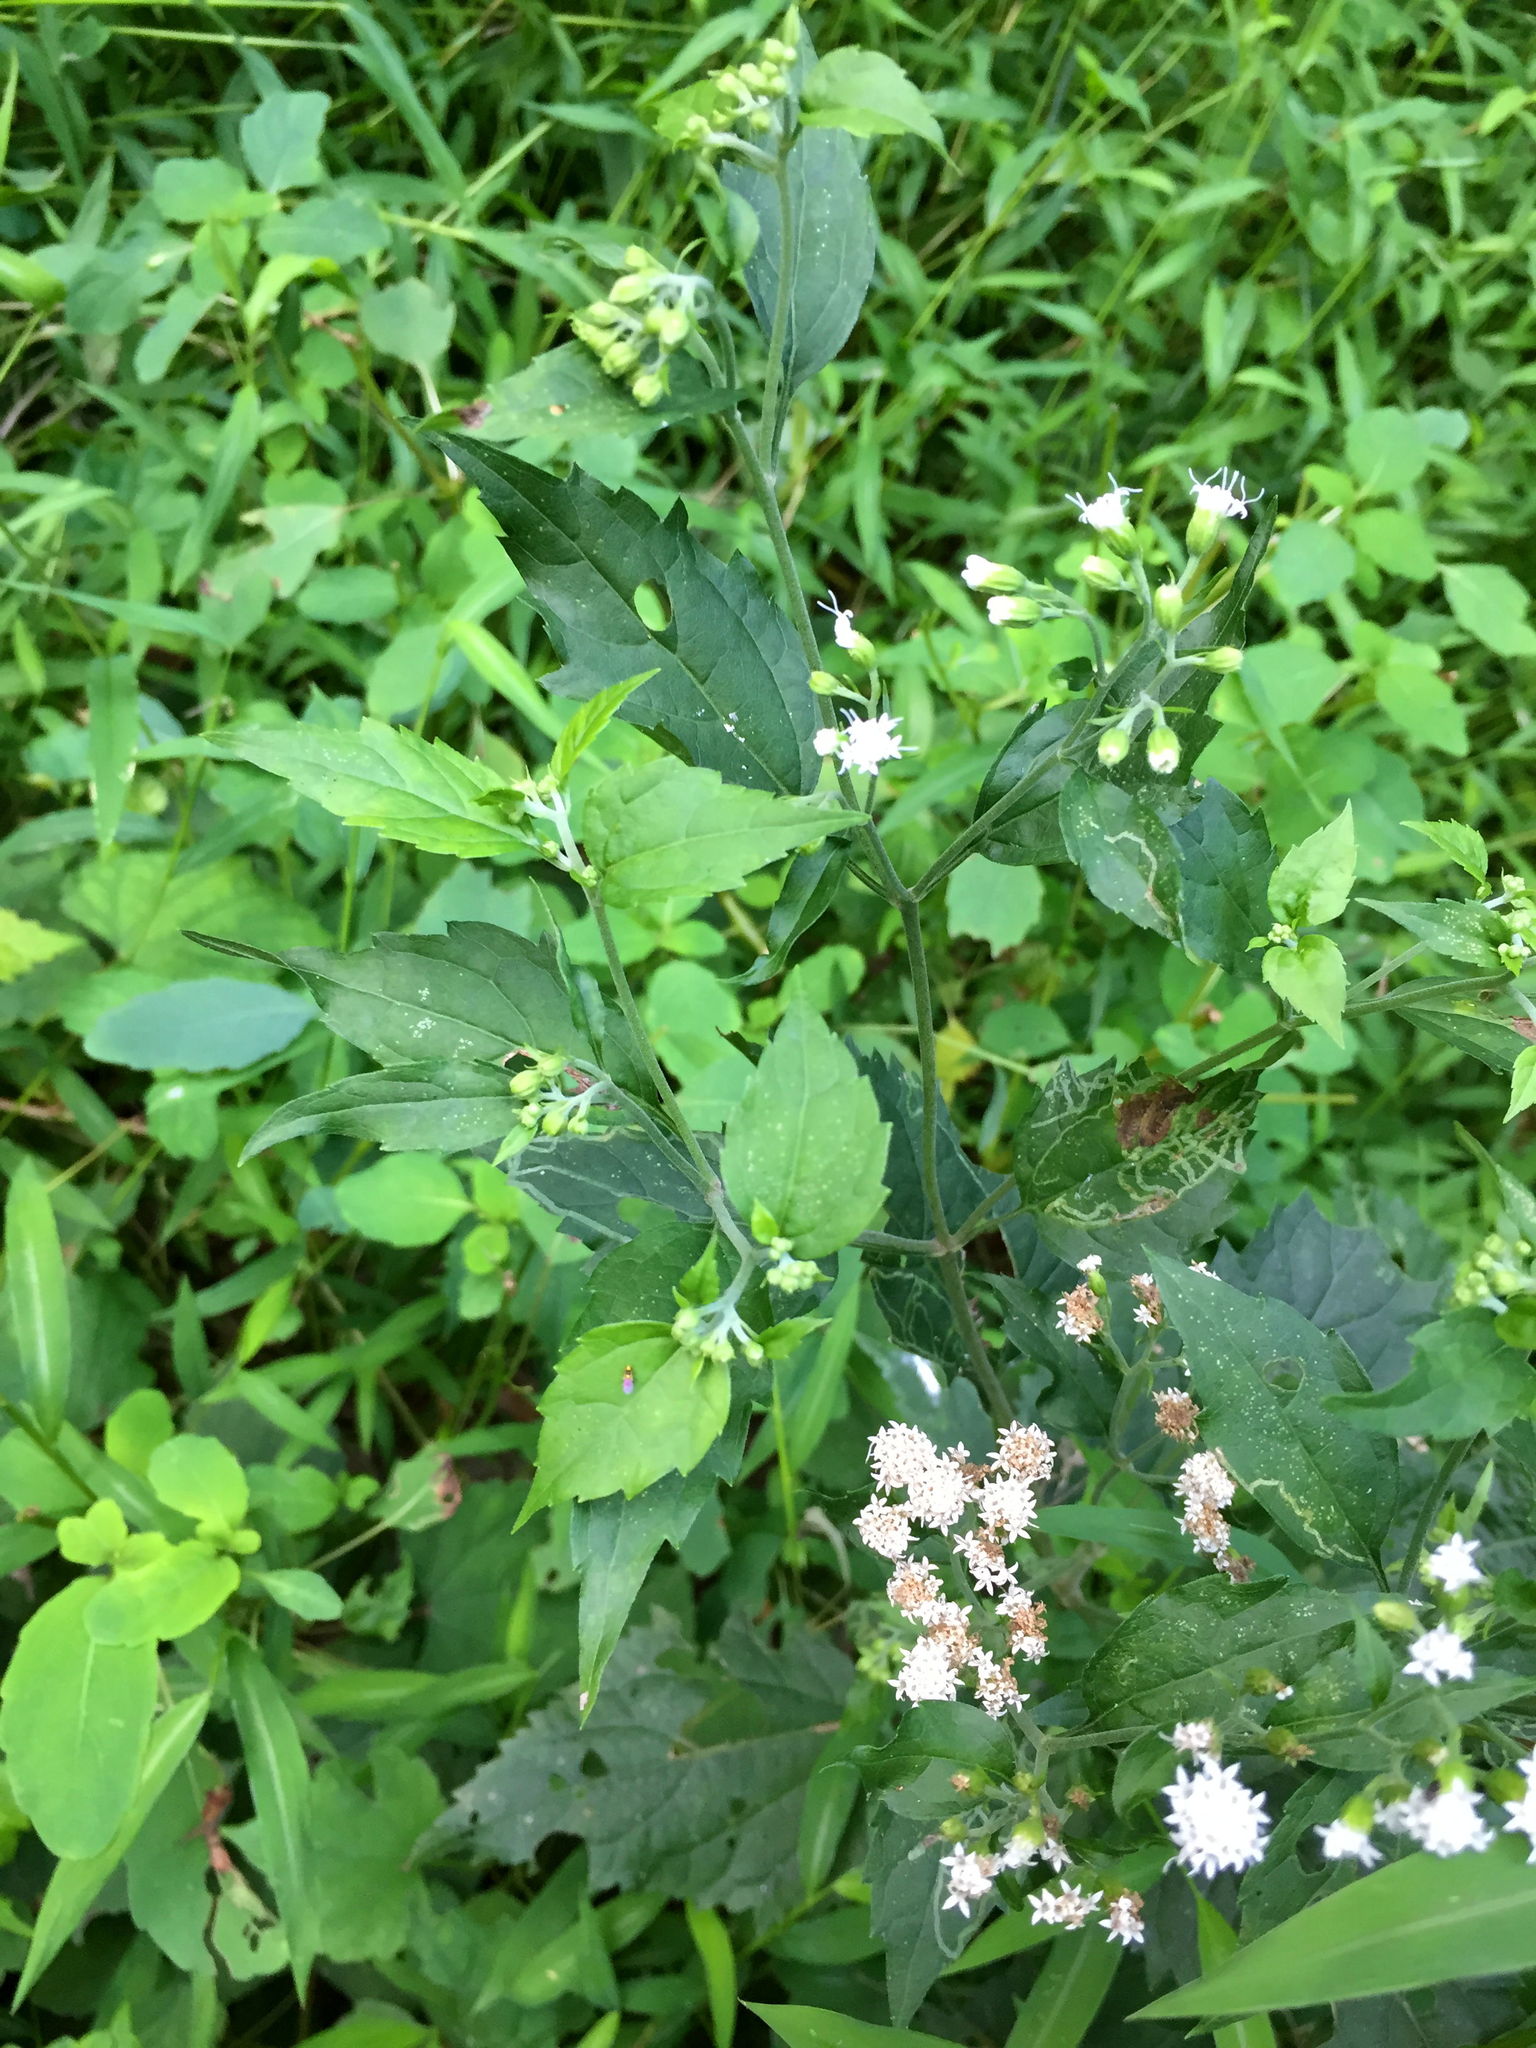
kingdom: Plantae
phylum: Tracheophyta
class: Magnoliopsida
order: Asterales
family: Asteraceae
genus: Ageratina
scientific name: Ageratina altissima
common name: White snakeroot
